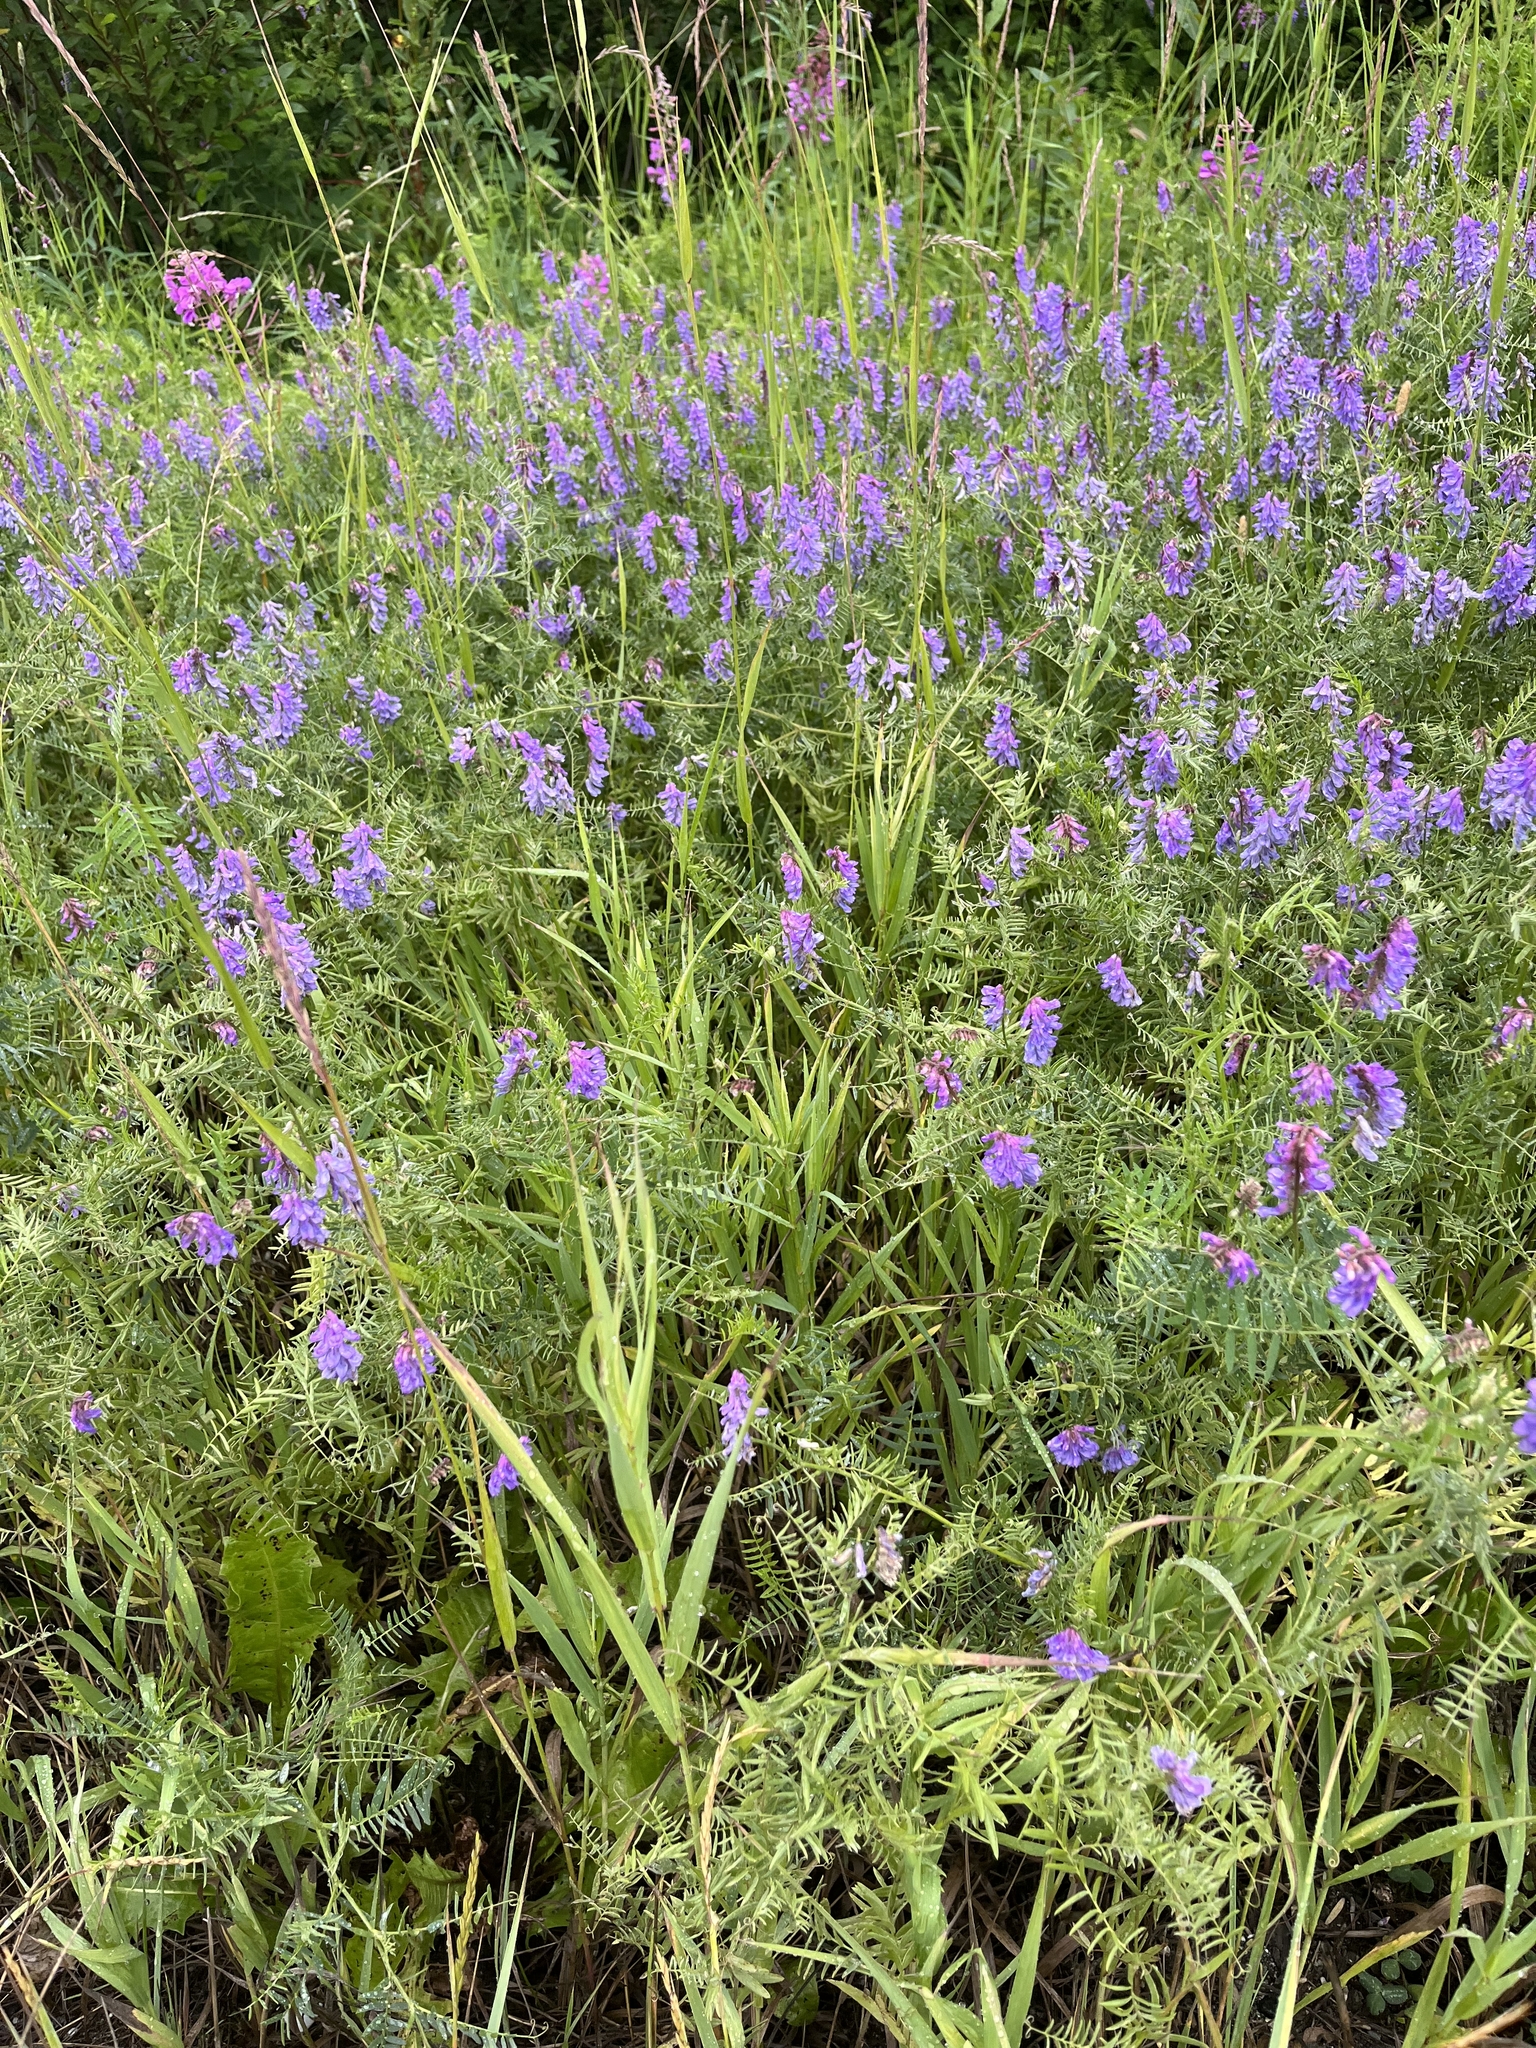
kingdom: Plantae
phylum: Tracheophyta
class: Magnoliopsida
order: Fabales
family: Fabaceae
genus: Vicia
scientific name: Vicia cracca
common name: Bird vetch
